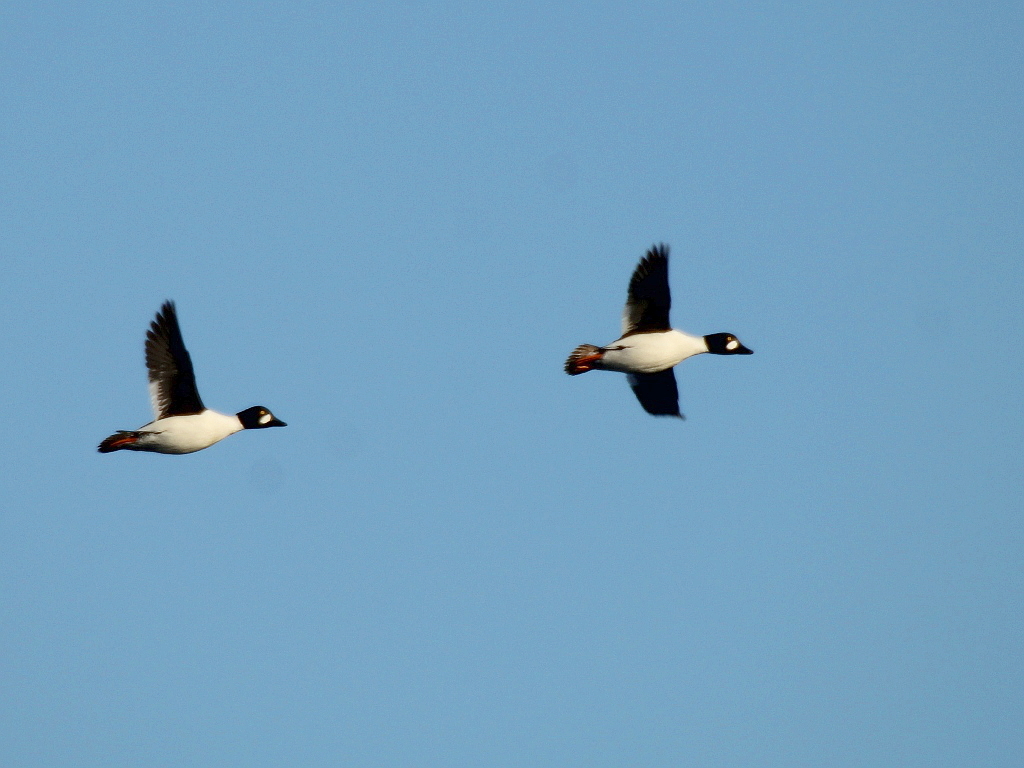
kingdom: Animalia
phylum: Chordata
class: Aves
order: Anseriformes
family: Anatidae
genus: Bucephala
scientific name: Bucephala clangula
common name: Common goldeneye
